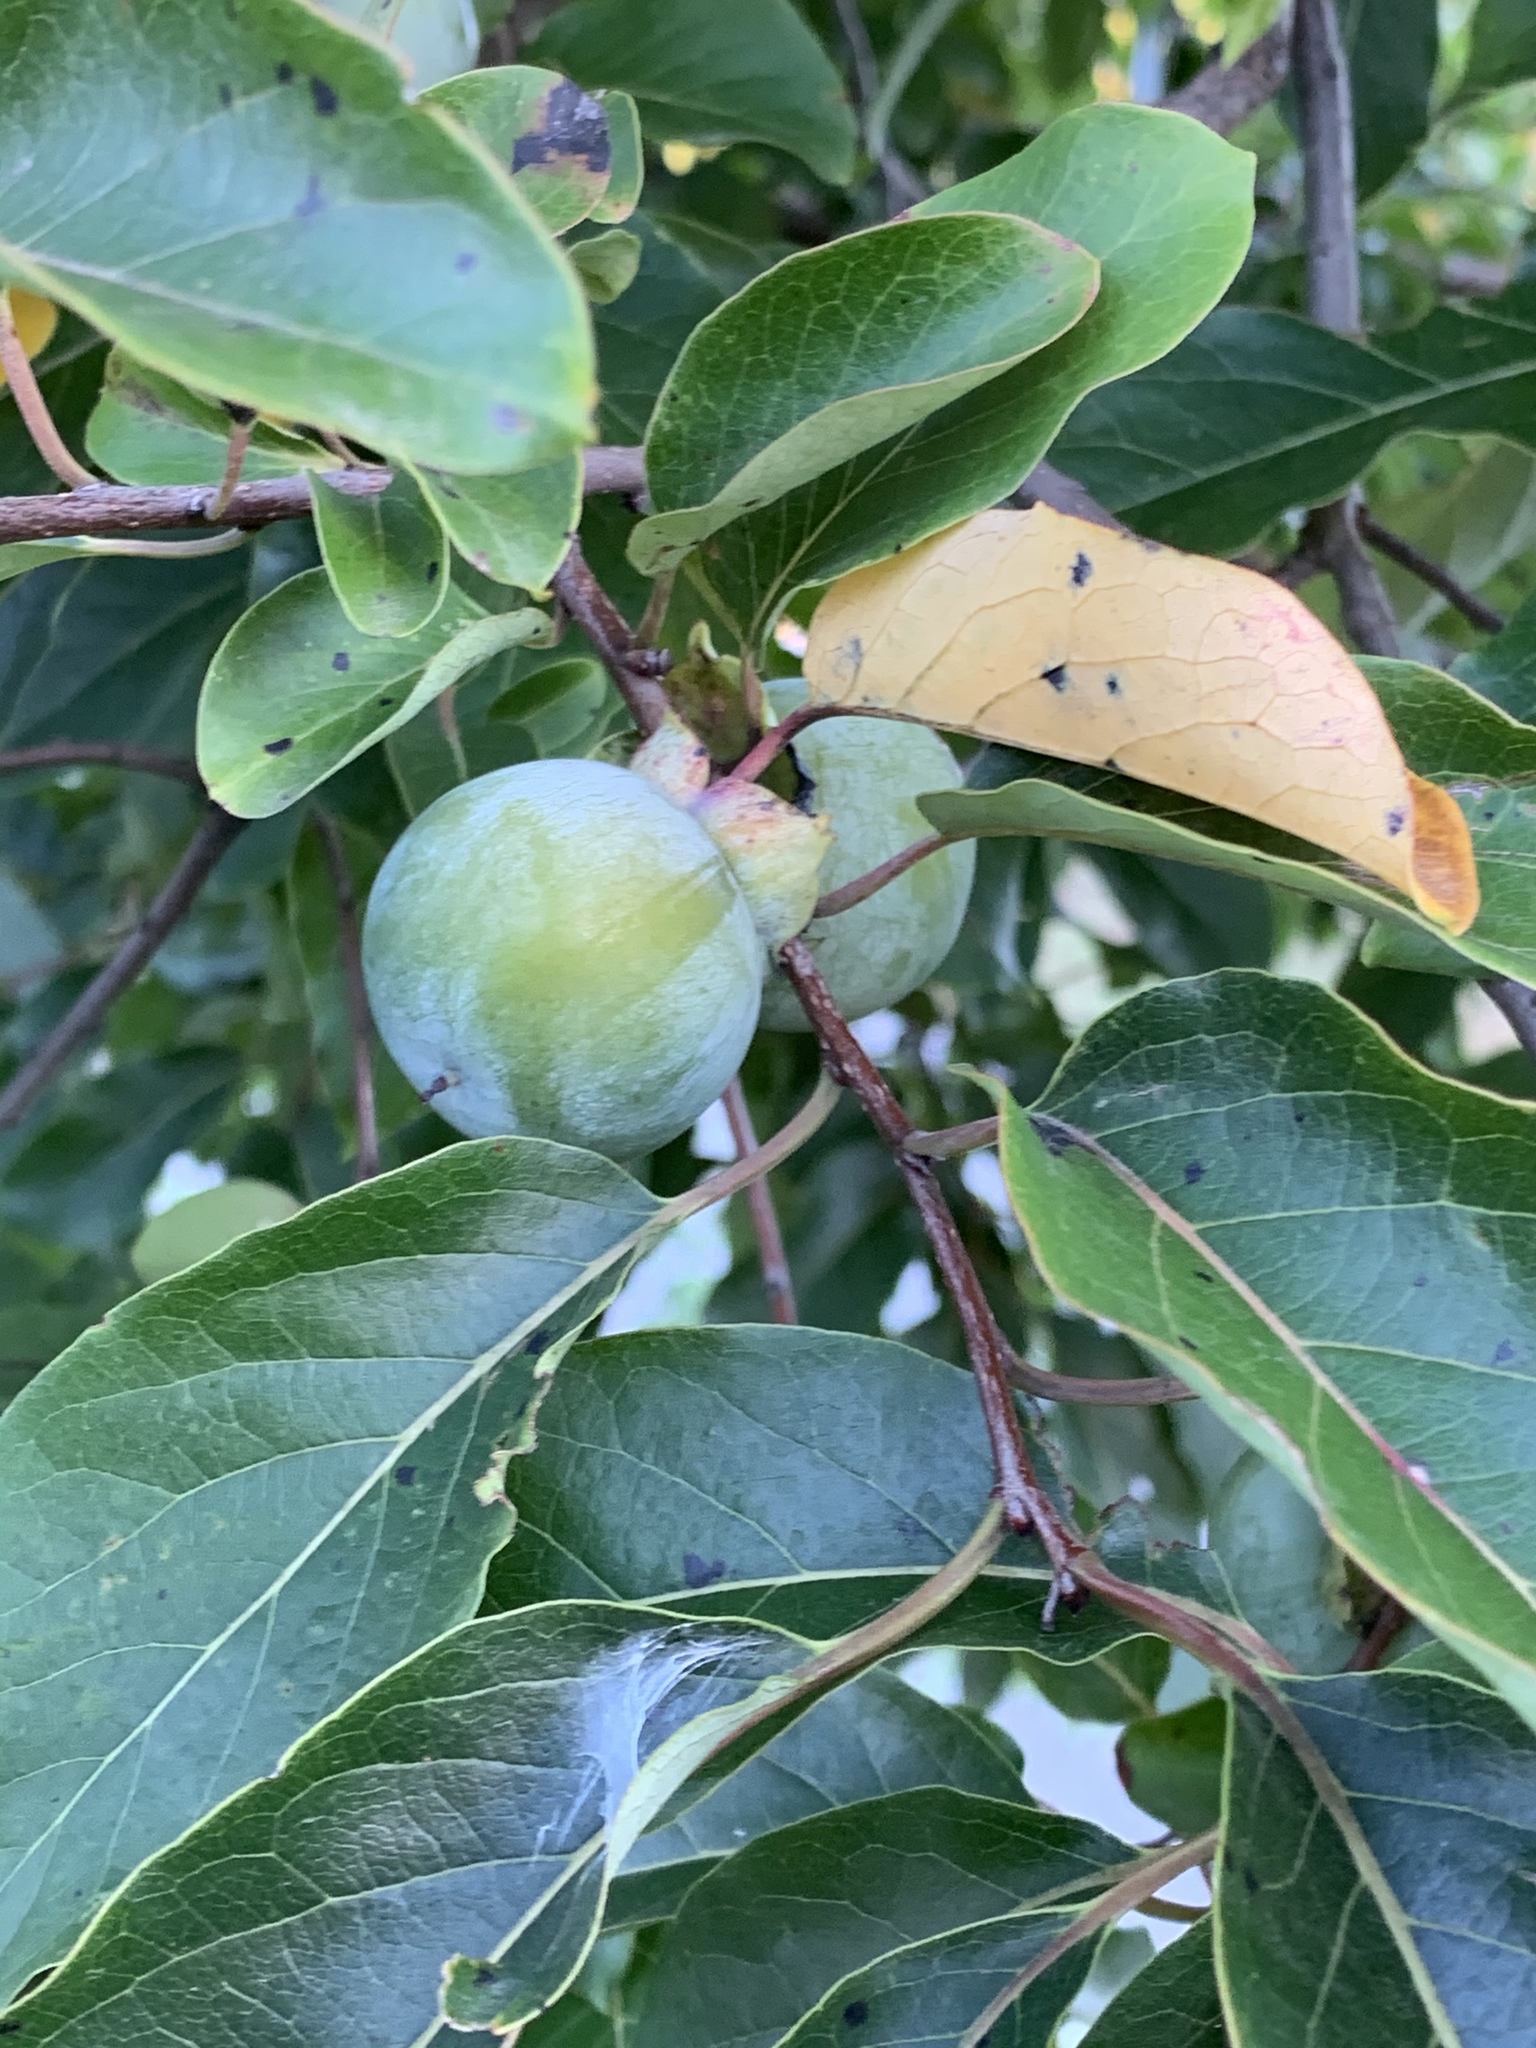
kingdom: Plantae
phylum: Tracheophyta
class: Magnoliopsida
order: Ericales
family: Ebenaceae
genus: Diospyros
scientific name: Diospyros virginiana
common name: Persimmon
